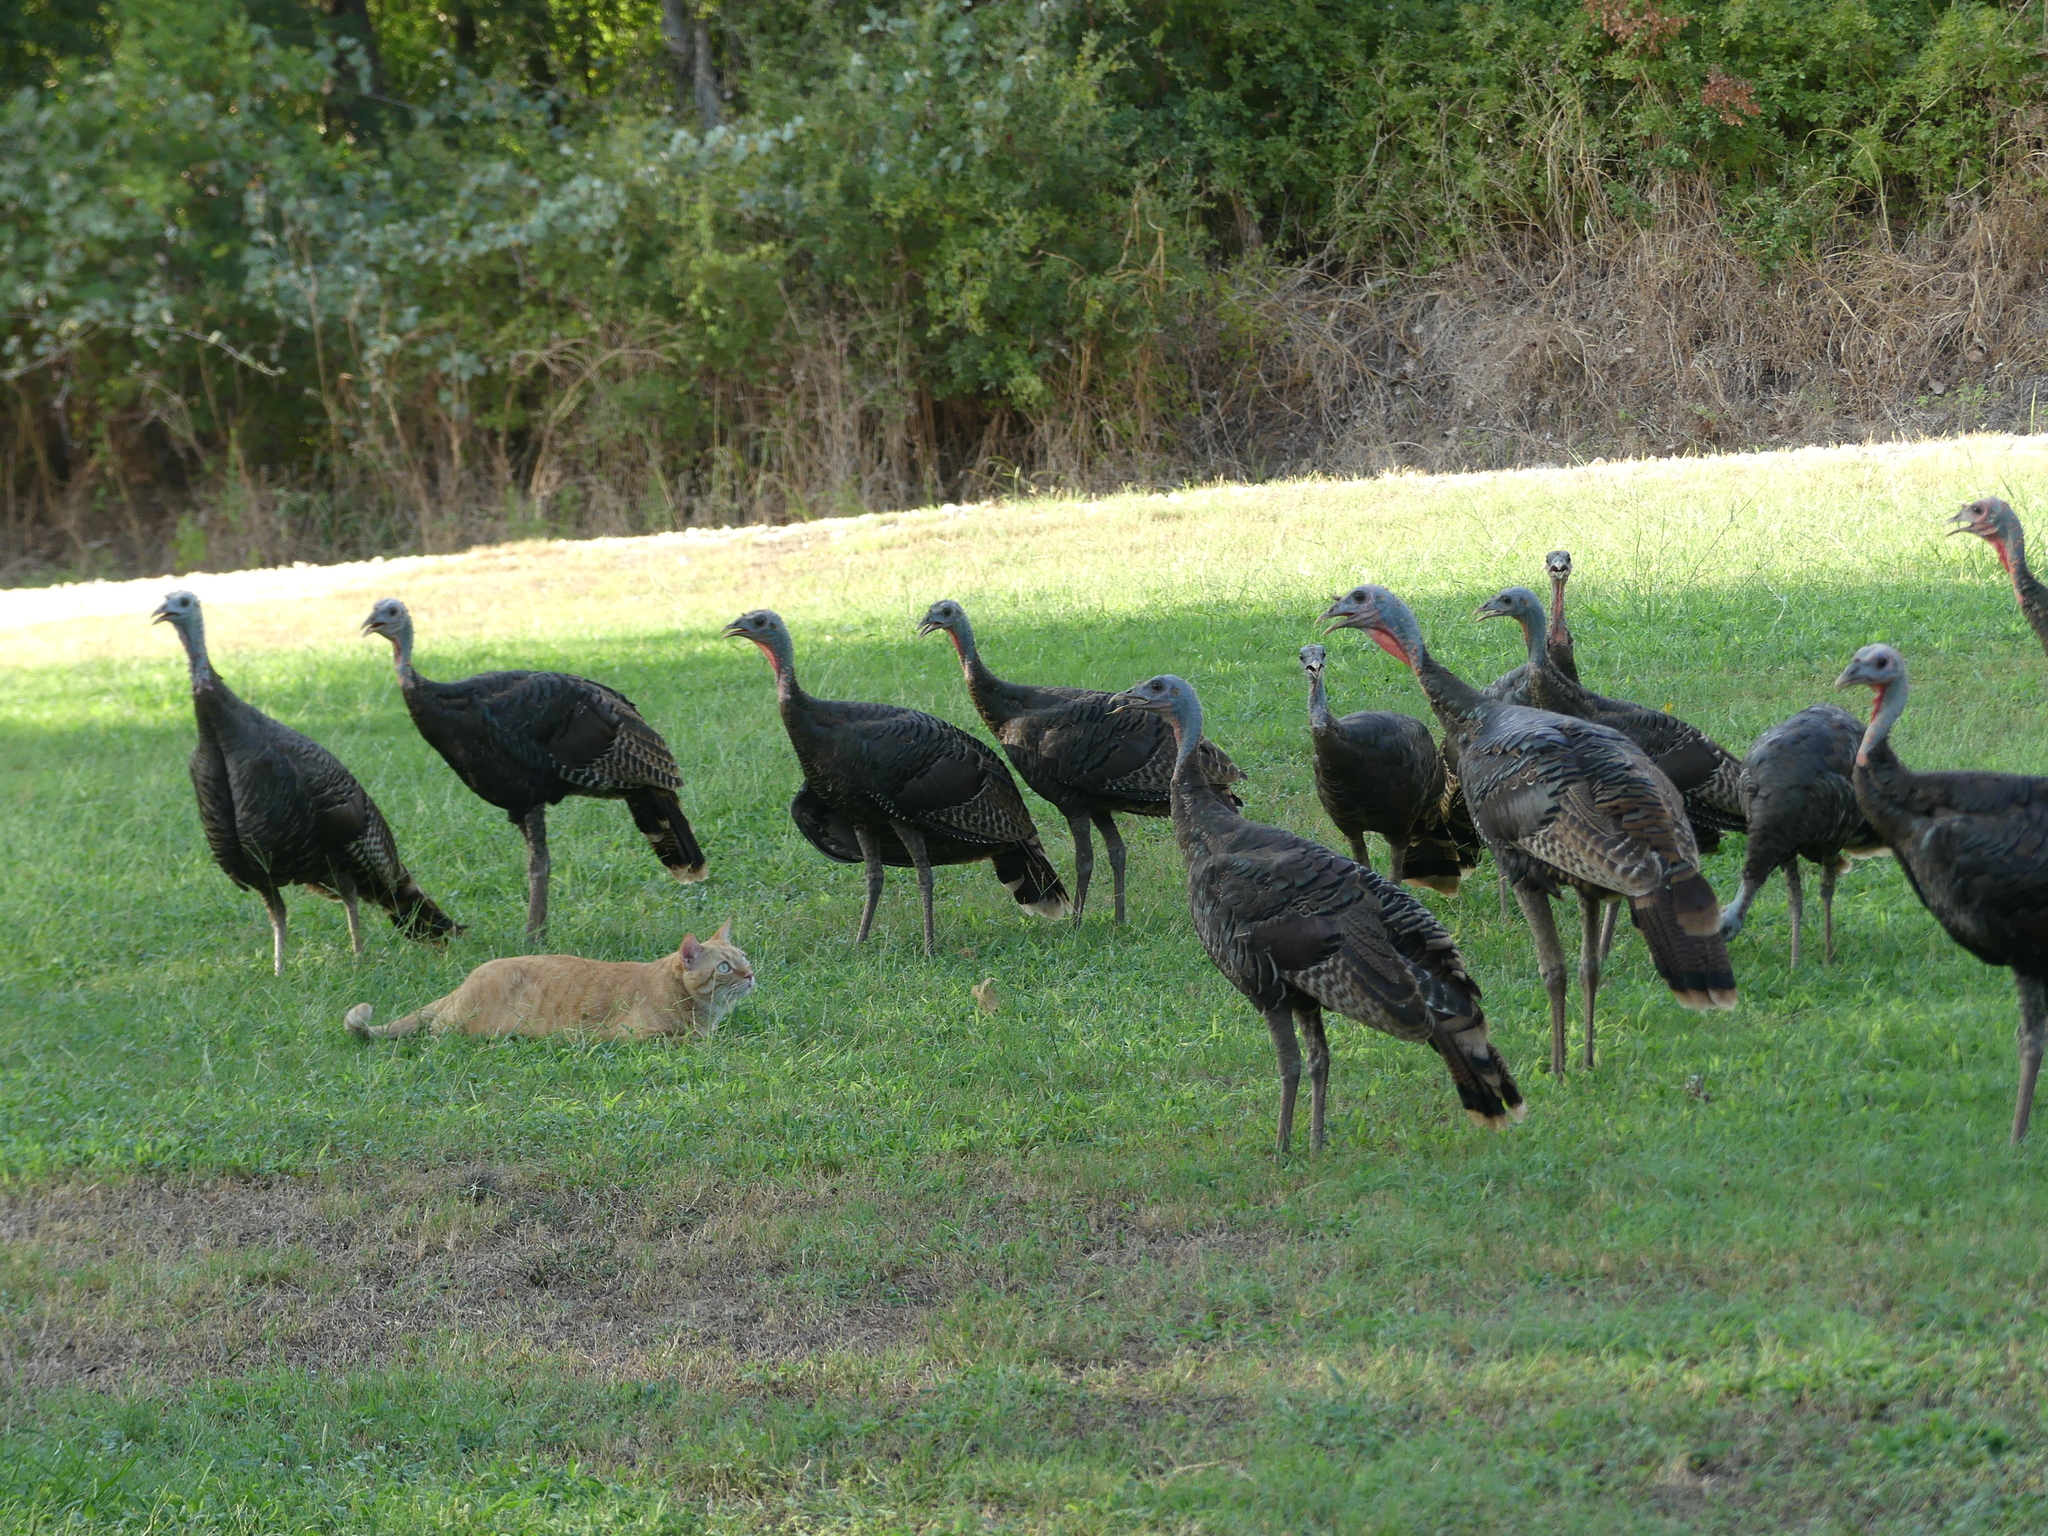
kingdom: Animalia
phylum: Chordata
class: Aves
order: Galliformes
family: Phasianidae
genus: Meleagris
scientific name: Meleagris gallopavo
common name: Wild turkey
